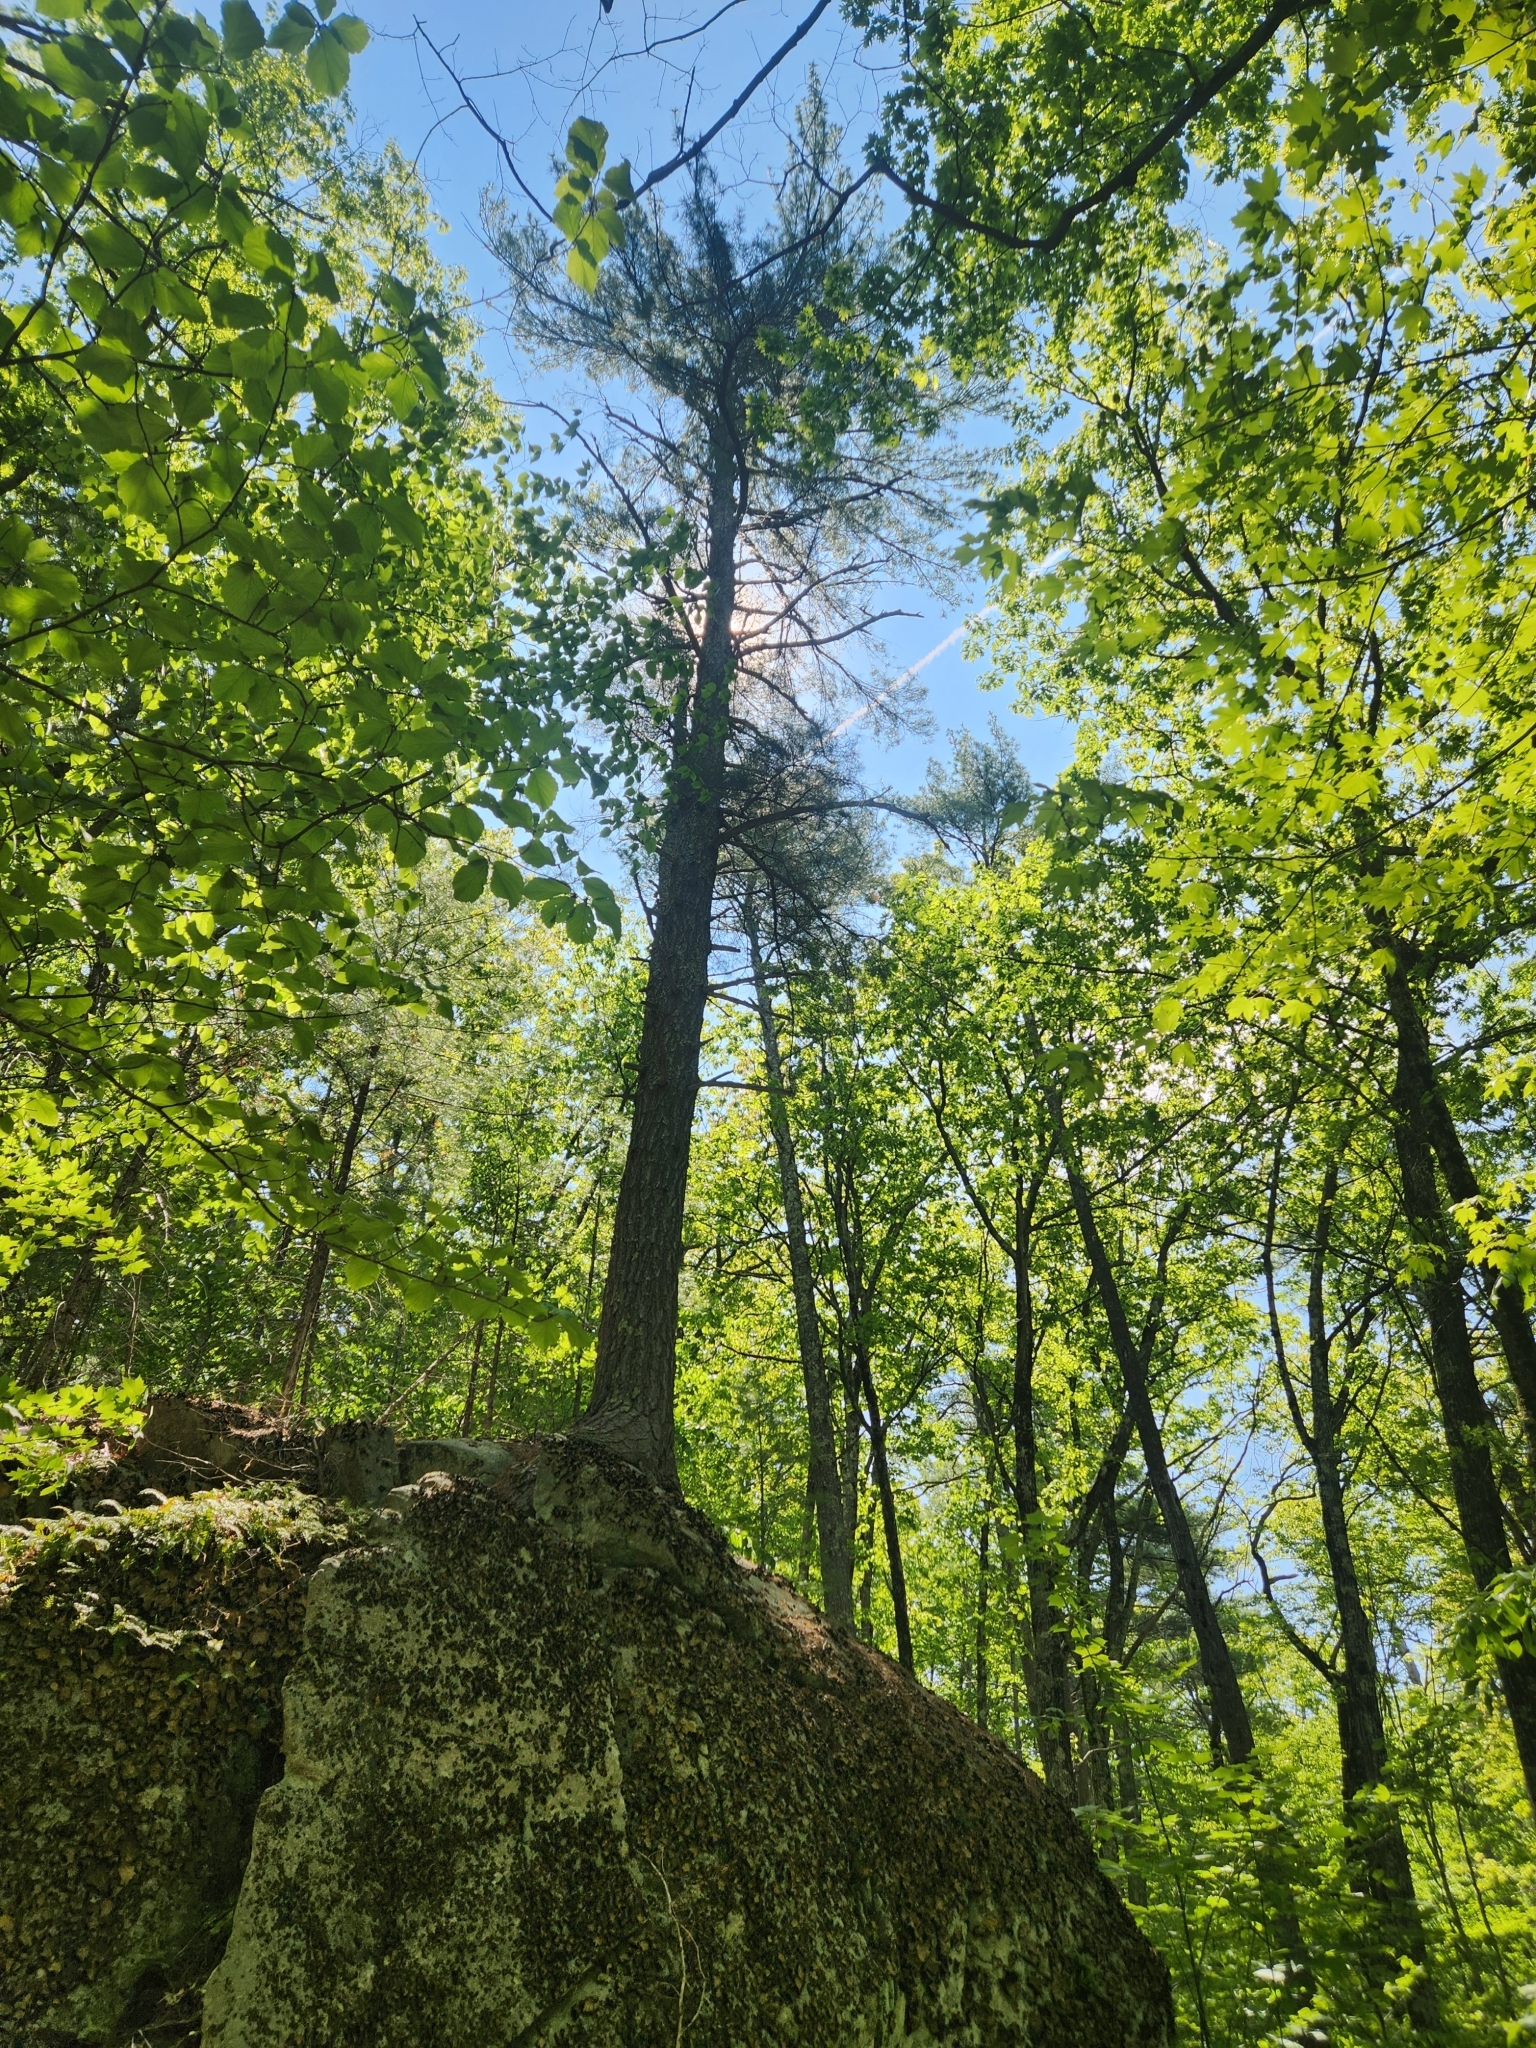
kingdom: Plantae
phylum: Tracheophyta
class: Pinopsida
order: Pinales
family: Pinaceae
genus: Pinus
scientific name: Pinus strobus
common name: Weymouth pine
